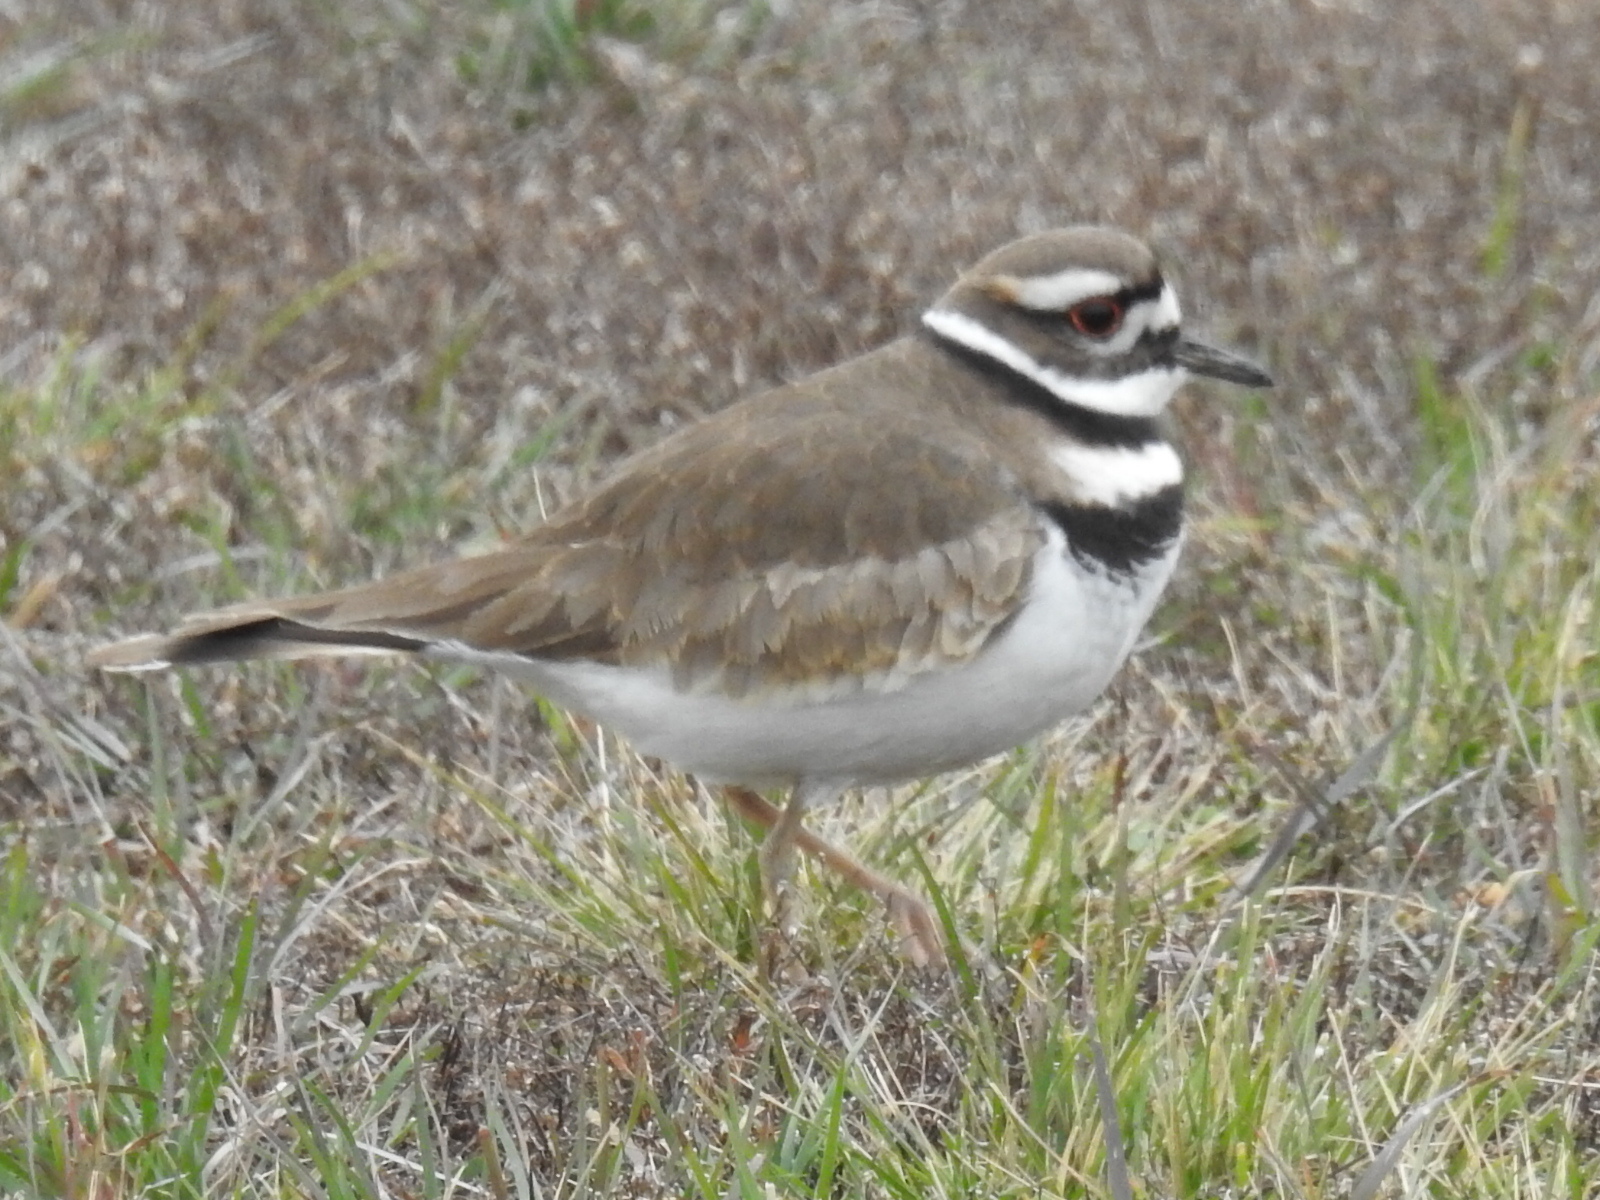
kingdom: Animalia
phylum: Chordata
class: Aves
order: Charadriiformes
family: Charadriidae
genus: Charadrius
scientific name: Charadrius vociferus
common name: Killdeer
